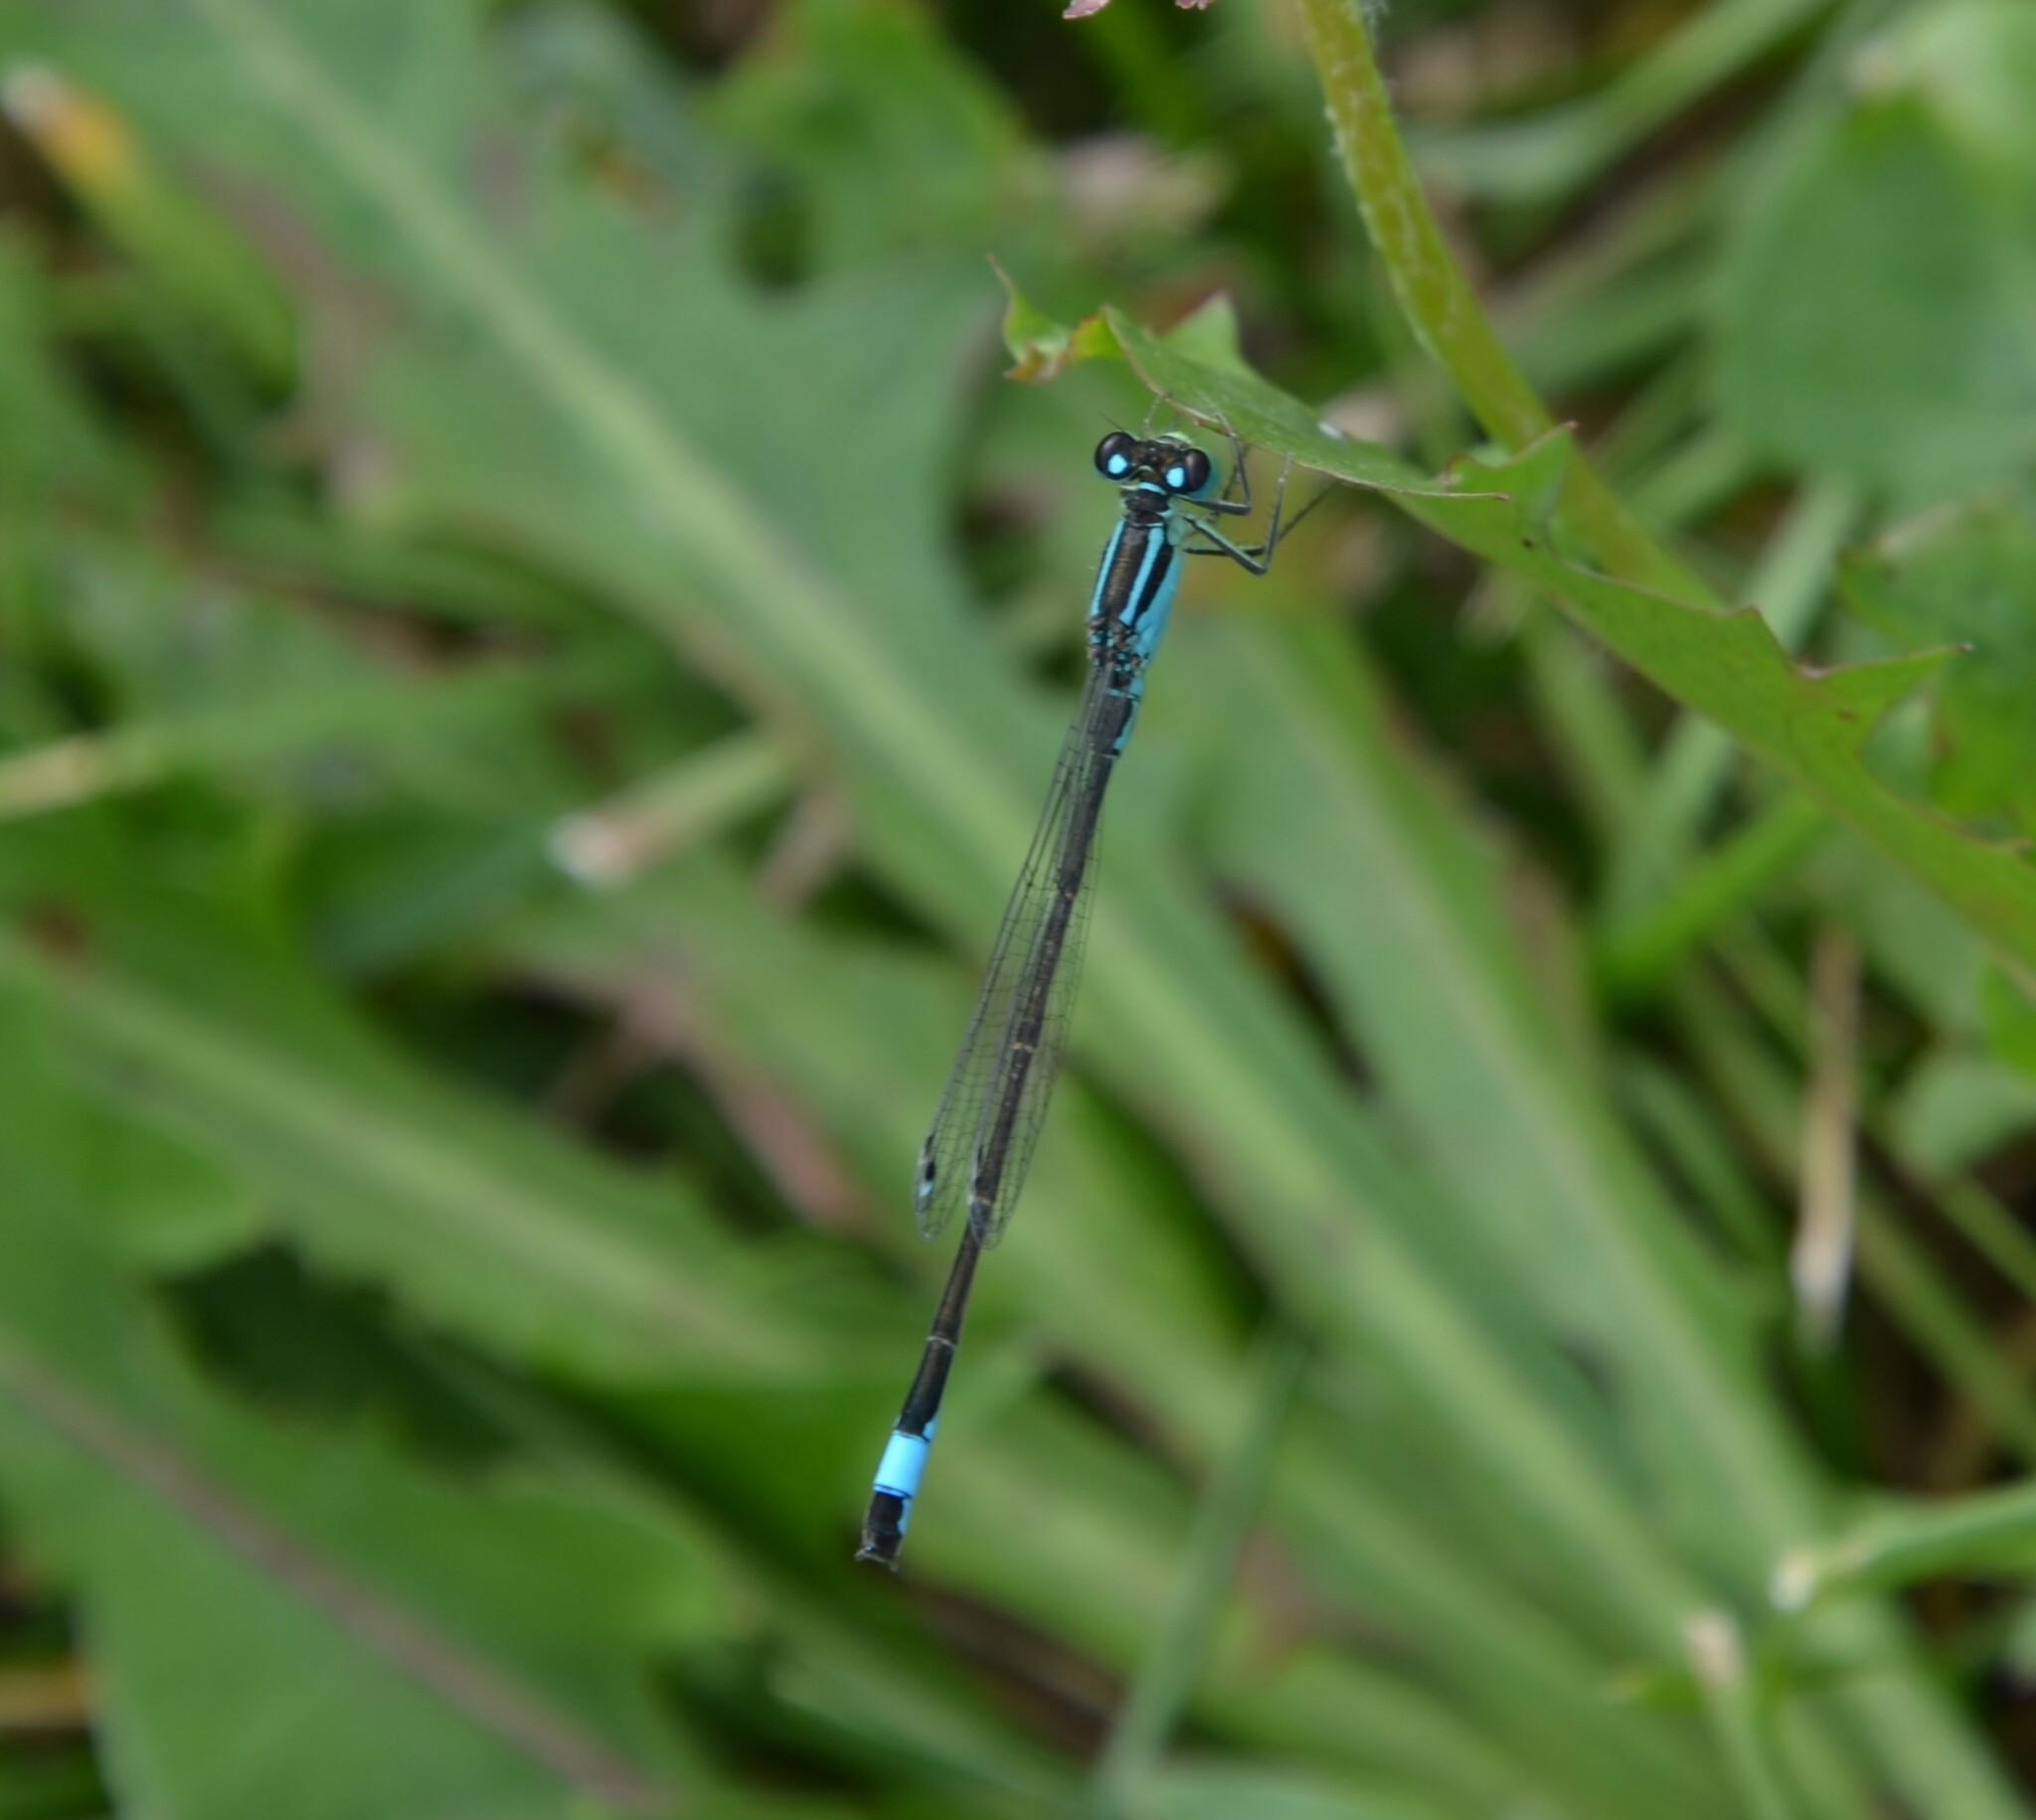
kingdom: Animalia
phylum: Arthropoda
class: Insecta
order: Odonata
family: Coenagrionidae
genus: Ischnura
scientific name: Ischnura elegans
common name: Blue-tailed damselfly
